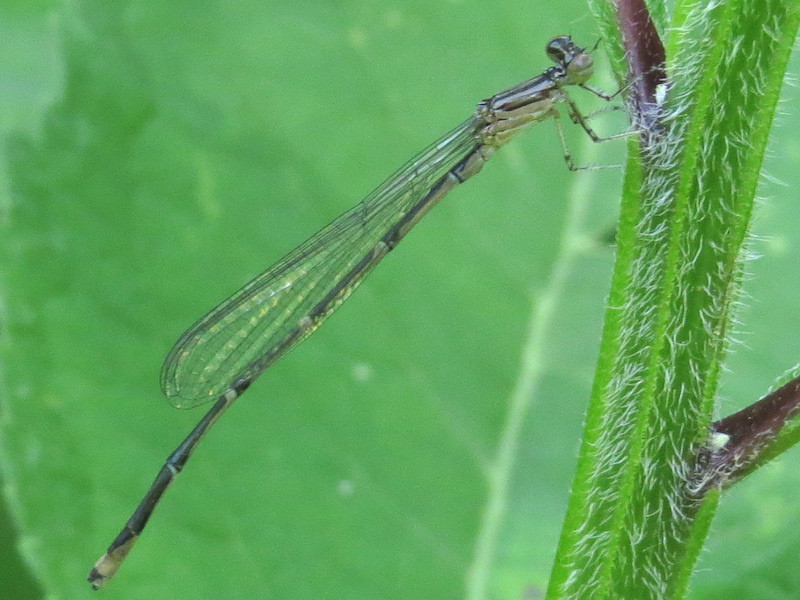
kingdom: Animalia
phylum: Arthropoda
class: Insecta
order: Odonata
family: Coenagrionidae
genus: Enallagma
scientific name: Enallagma exsulans
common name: Stream bluet
